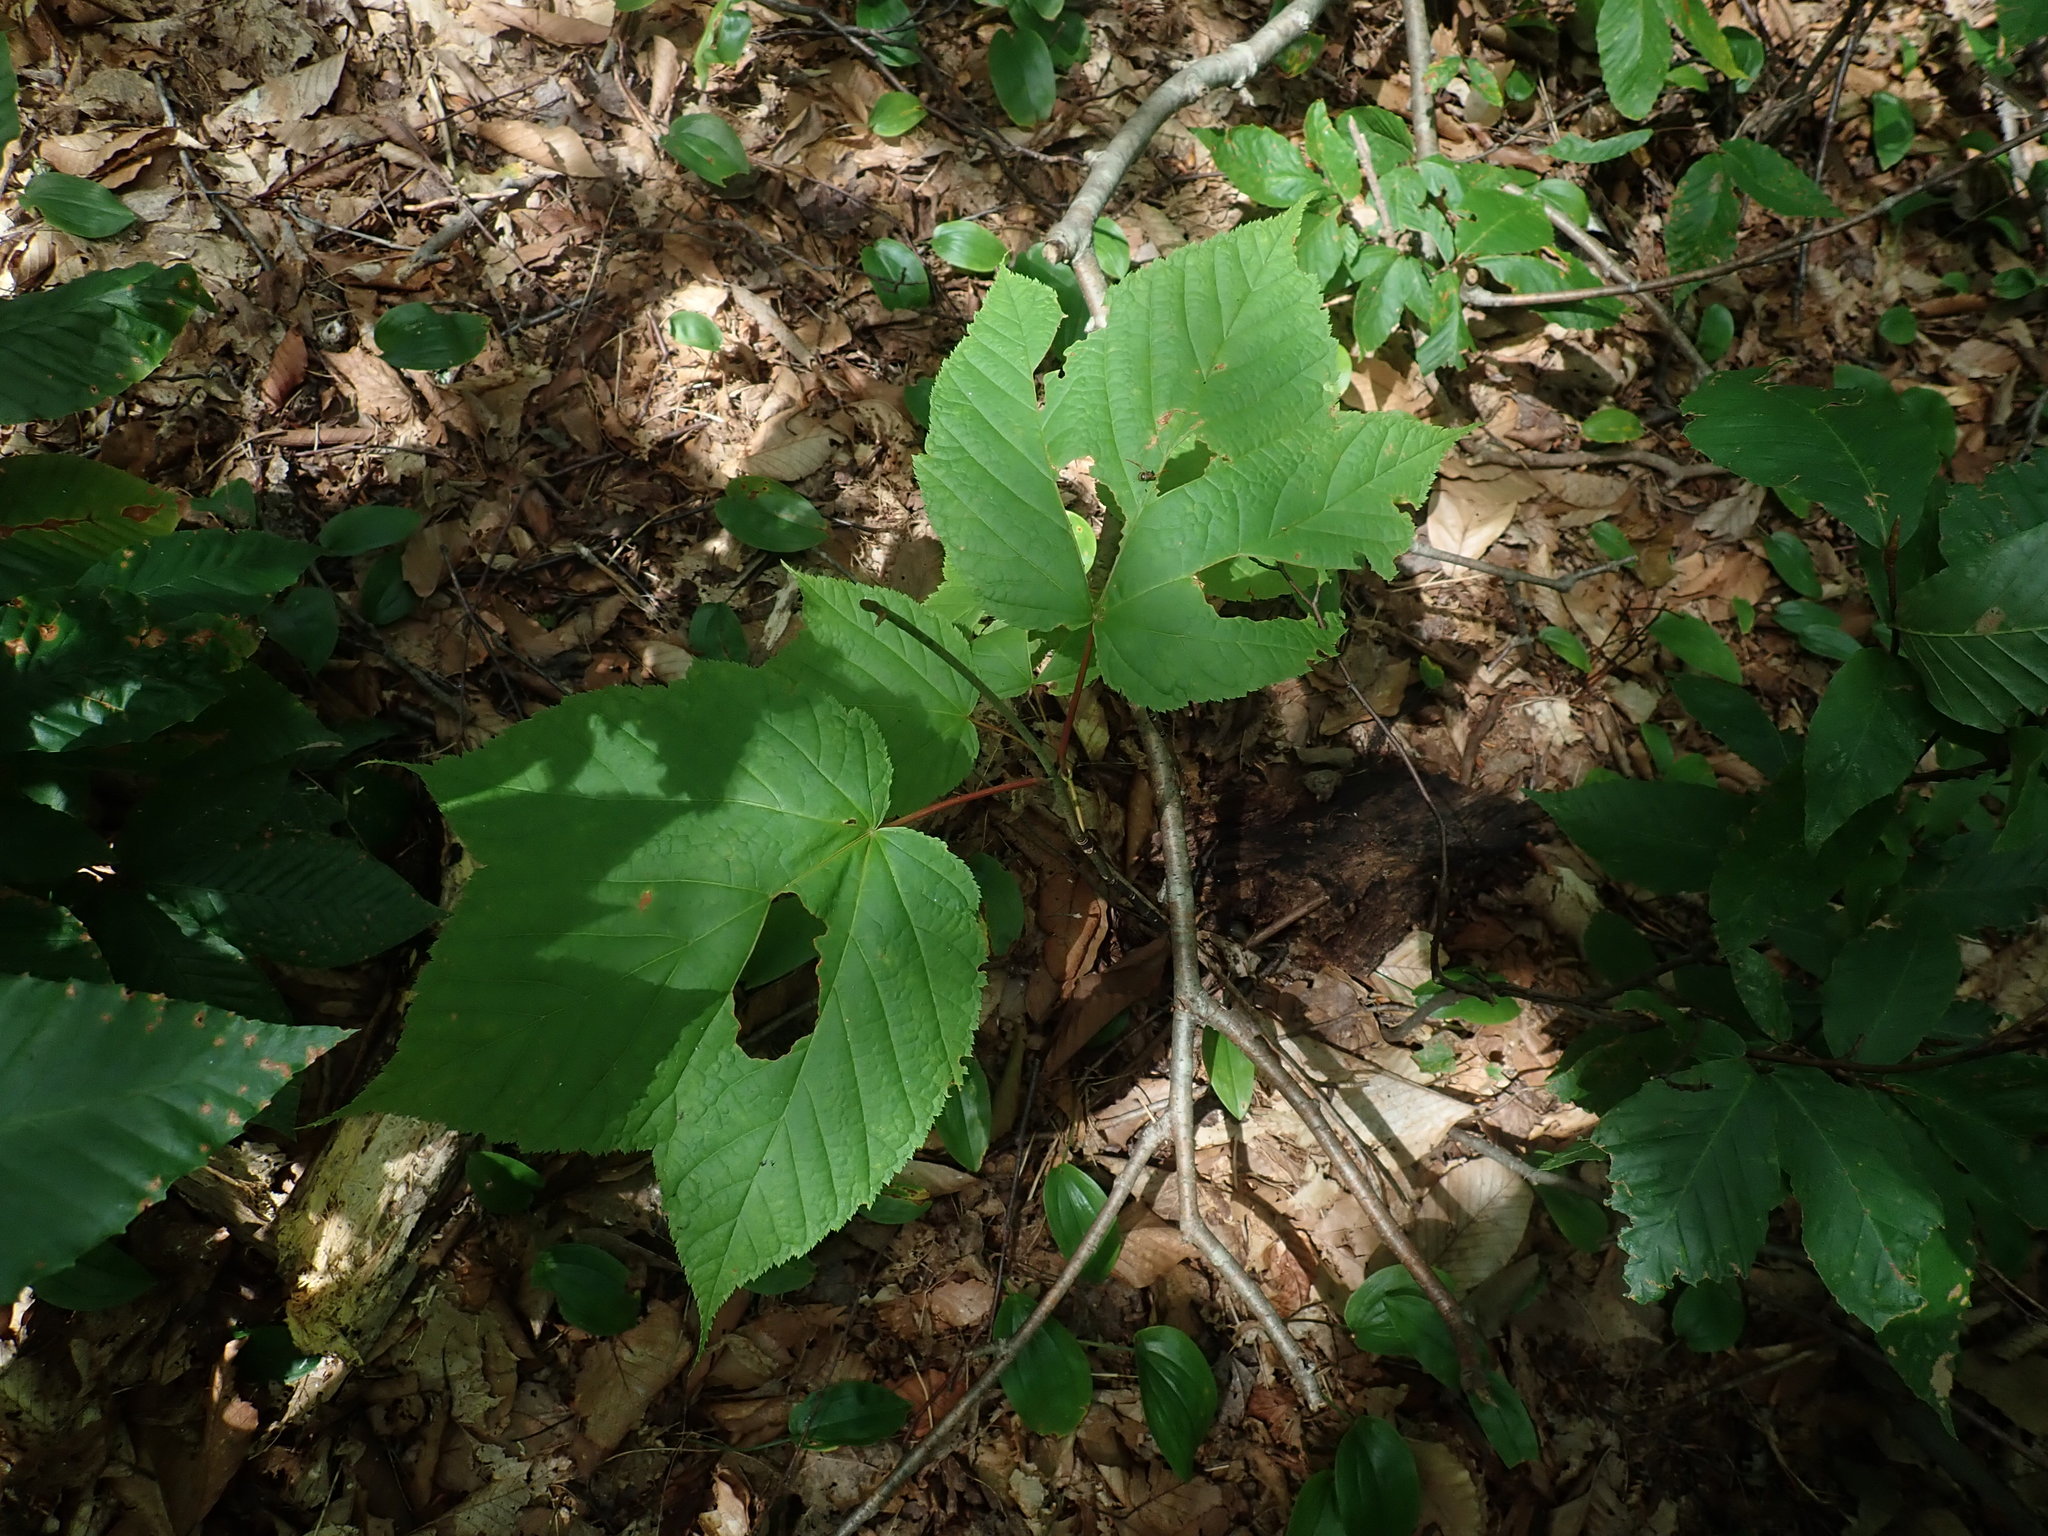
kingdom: Plantae
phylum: Tracheophyta
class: Magnoliopsida
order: Sapindales
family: Sapindaceae
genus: Acer
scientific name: Acer pensylvanicum
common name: Moosewood
